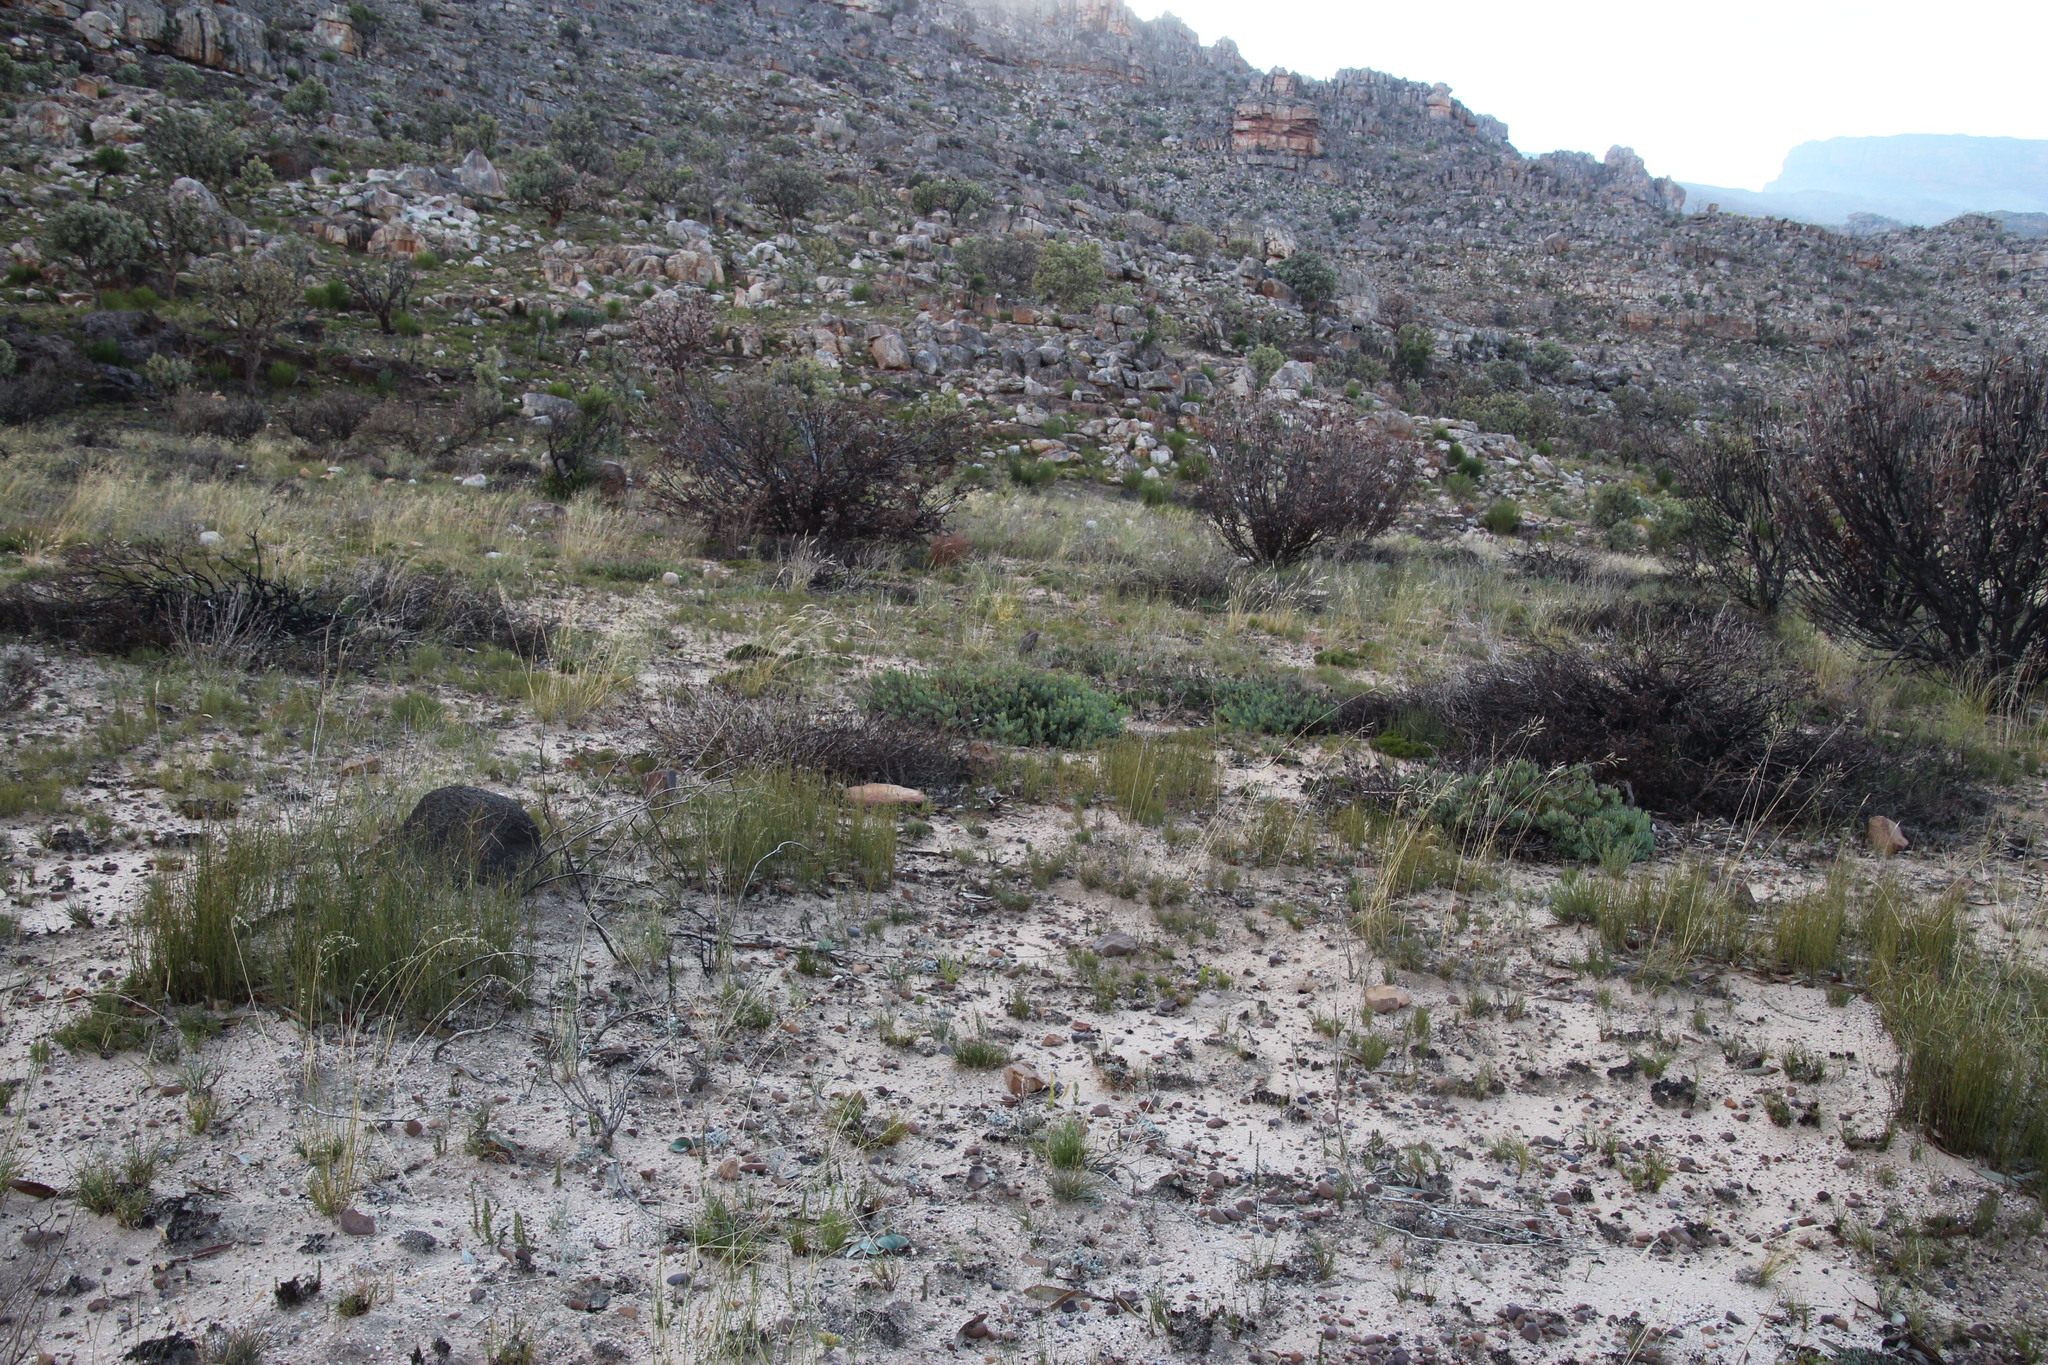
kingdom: Plantae
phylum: Tracheophyta
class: Magnoliopsida
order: Proteales
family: Proteaceae
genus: Leucadendron
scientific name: Leucadendron glaberrimum
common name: Common oily conebush
